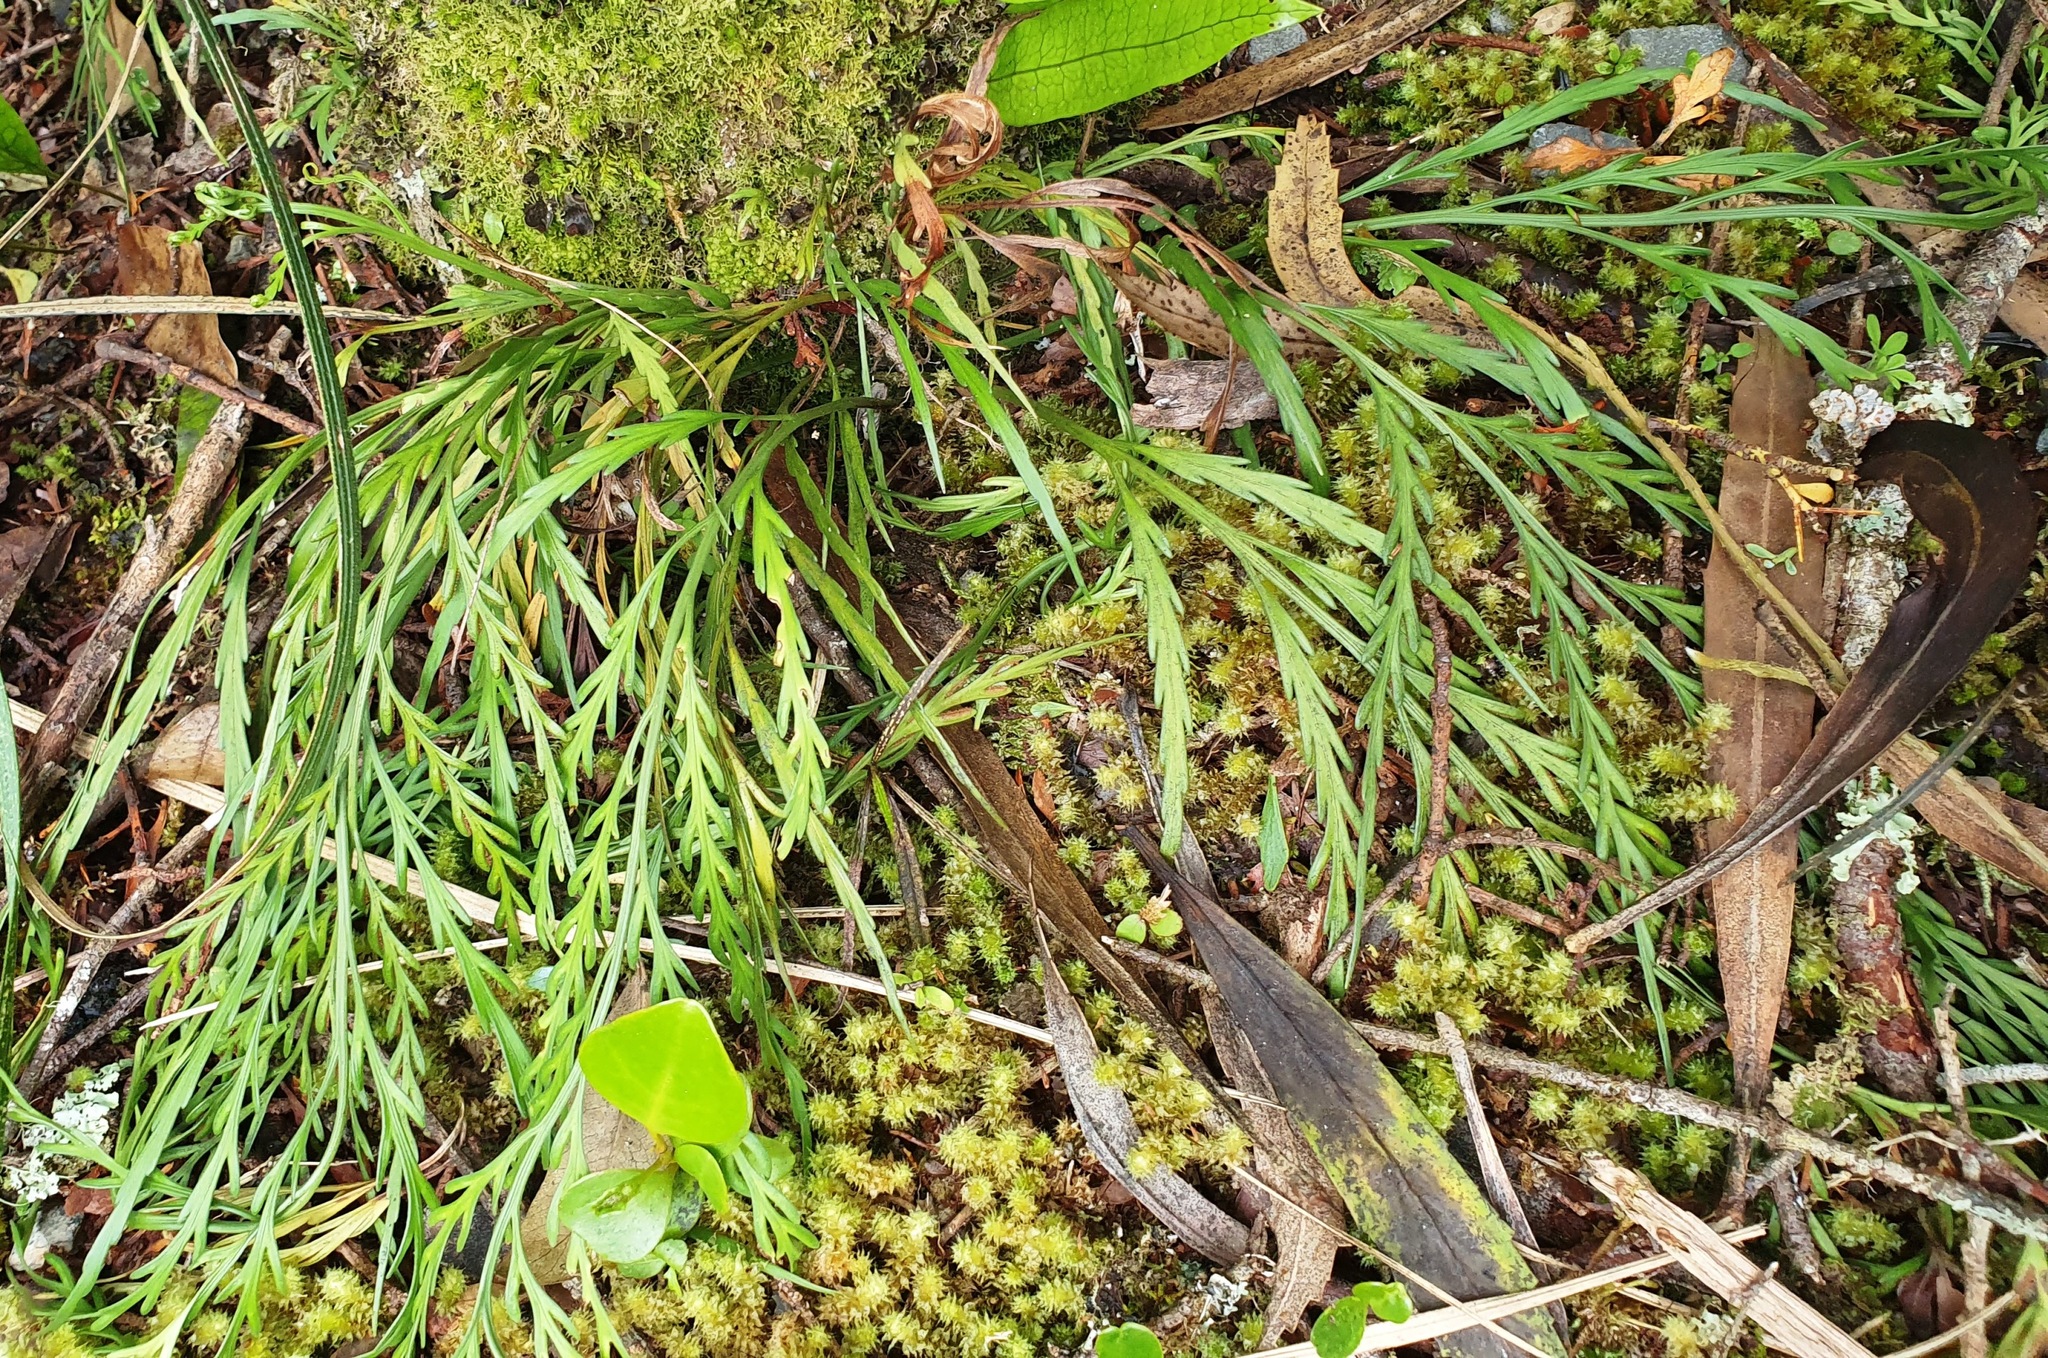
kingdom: Plantae
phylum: Tracheophyta
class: Polypodiopsida
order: Polypodiales
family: Aspleniaceae
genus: Asplenium
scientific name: Asplenium flaccidum
